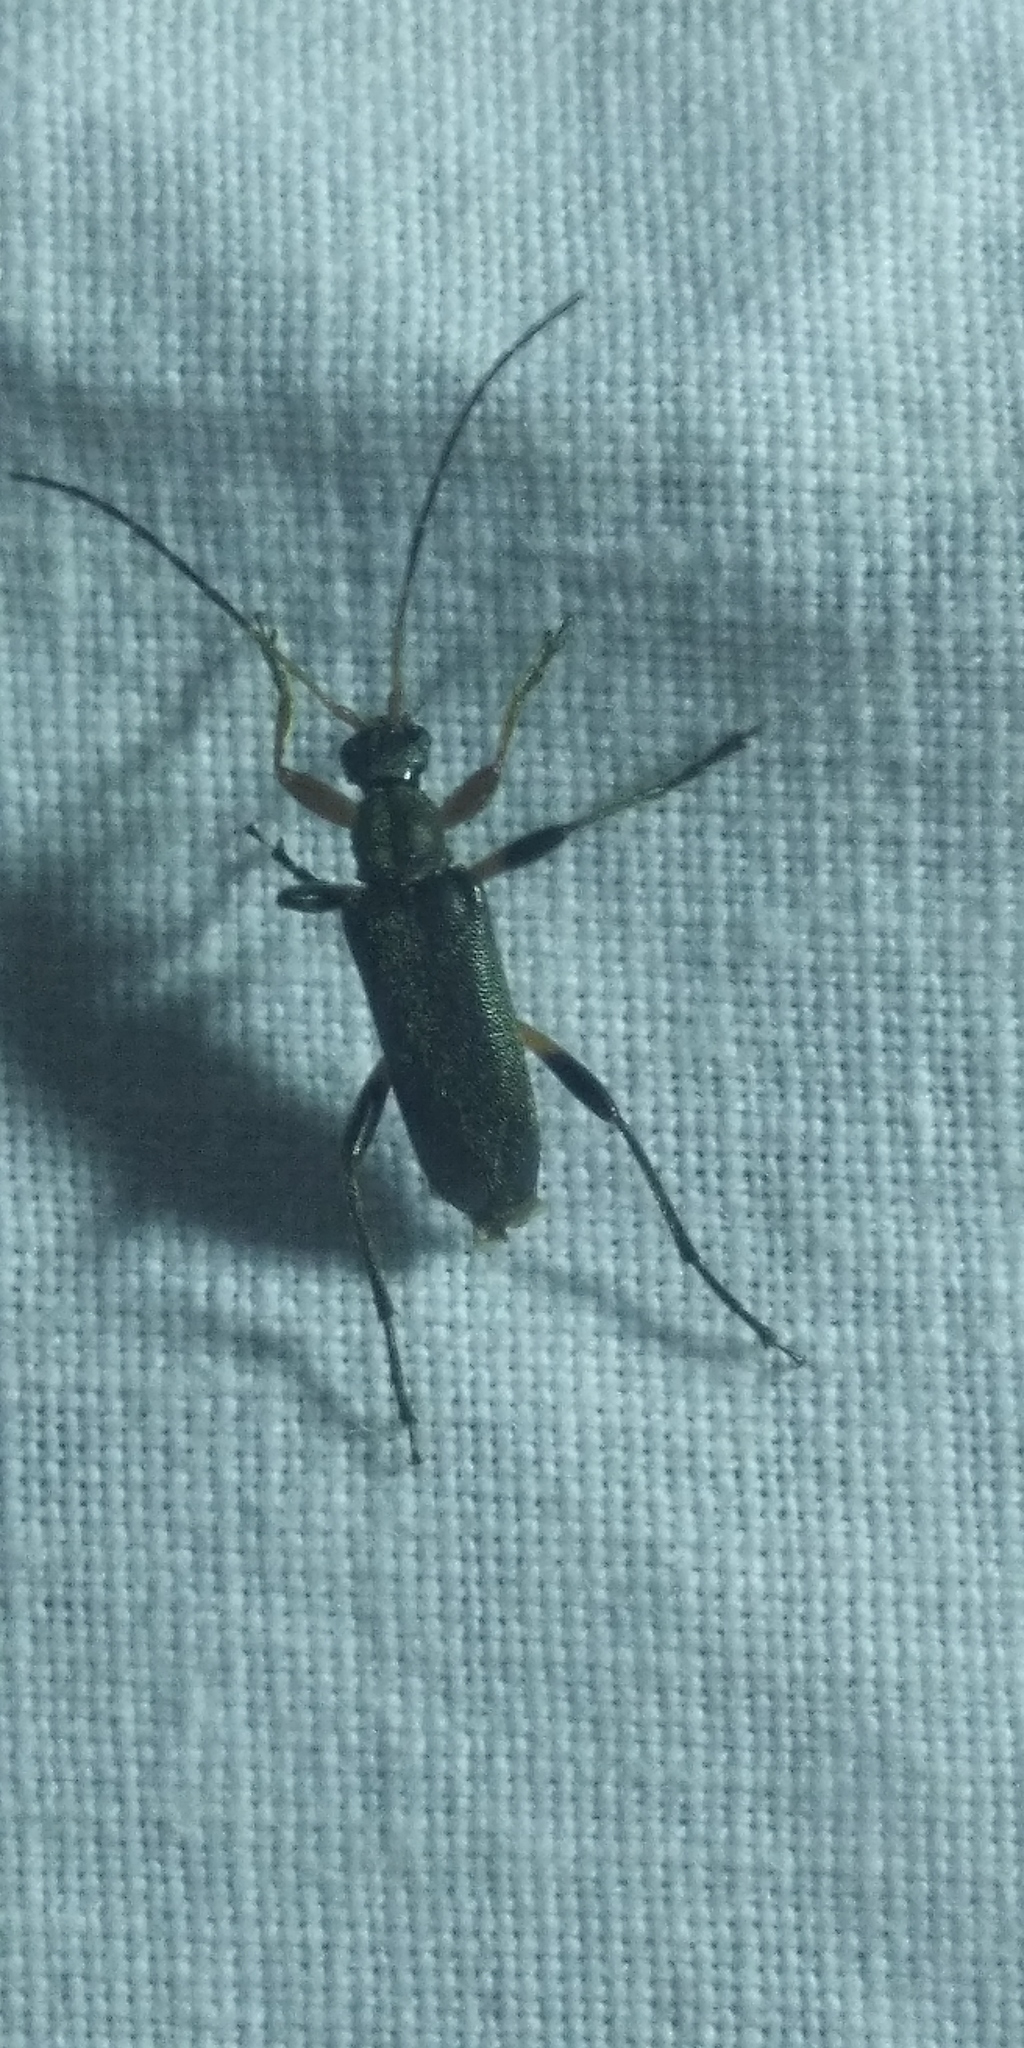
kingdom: Animalia
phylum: Arthropoda
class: Insecta
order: Coleoptera
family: Cerambycidae
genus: Grammoptera
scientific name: Grammoptera ruficornis
